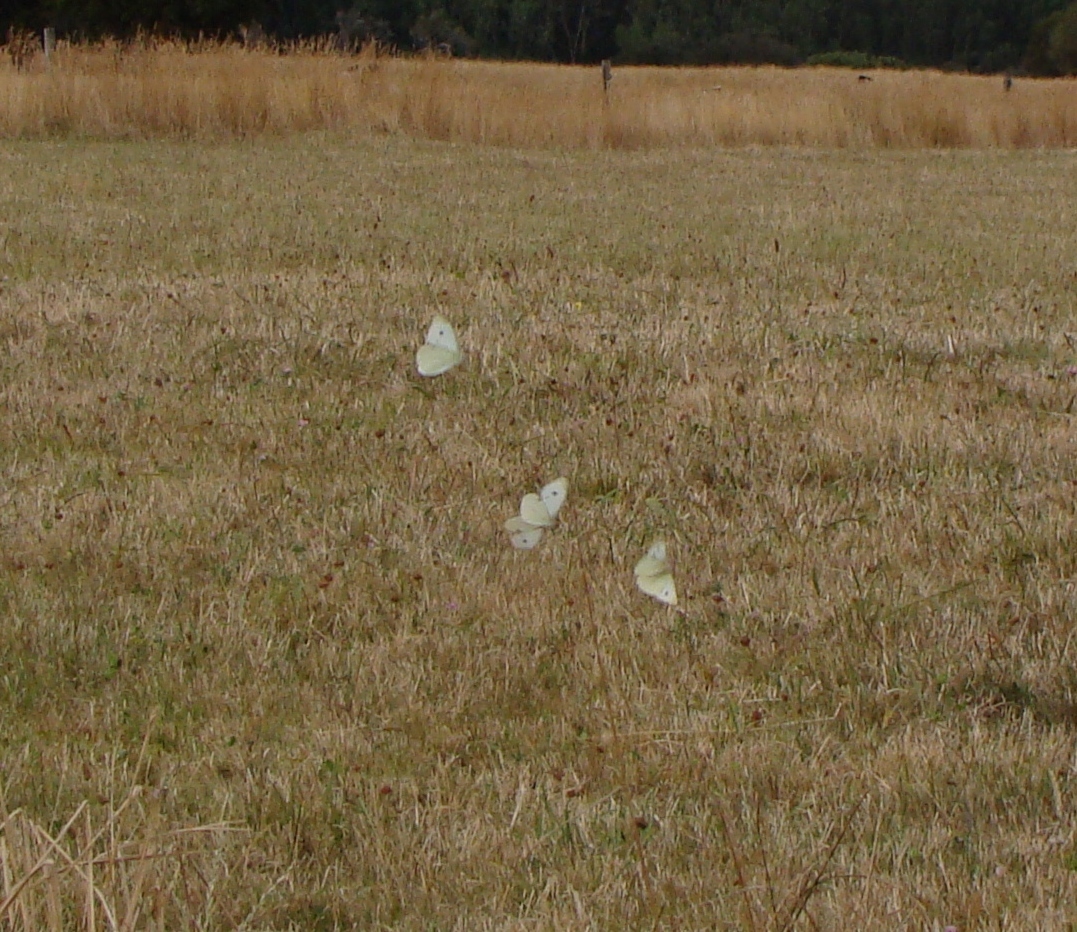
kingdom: Animalia
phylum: Arthropoda
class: Insecta
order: Lepidoptera
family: Pieridae
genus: Pieris
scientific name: Pieris rapae
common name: Small white
